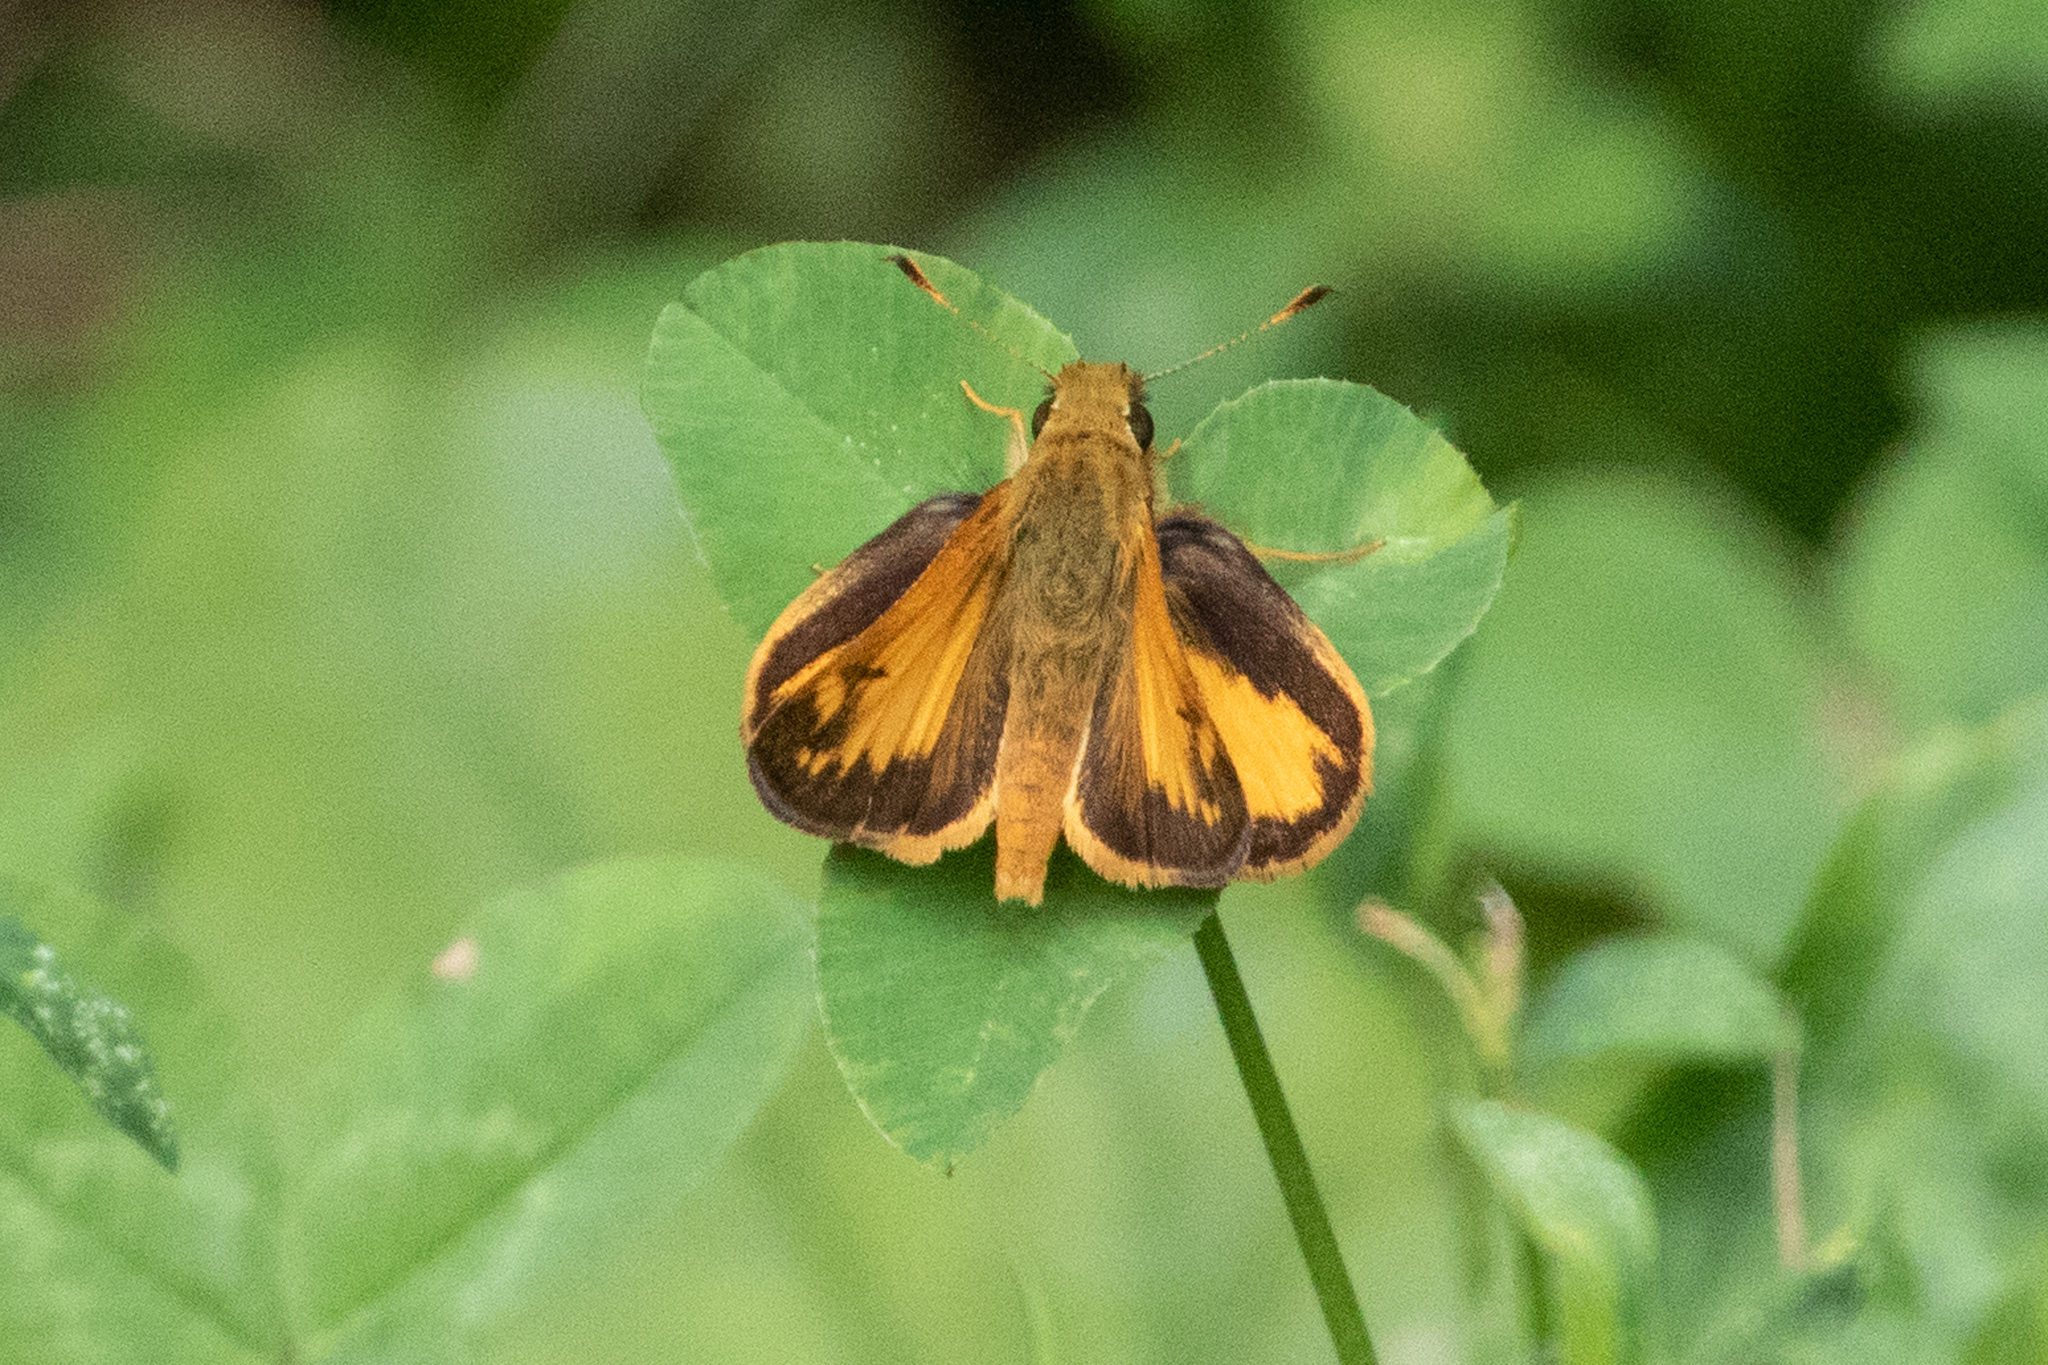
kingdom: Animalia
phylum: Arthropoda
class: Insecta
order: Lepidoptera
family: Hesperiidae
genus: Lon
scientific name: Lon zabulon
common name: Zabulon skipper
